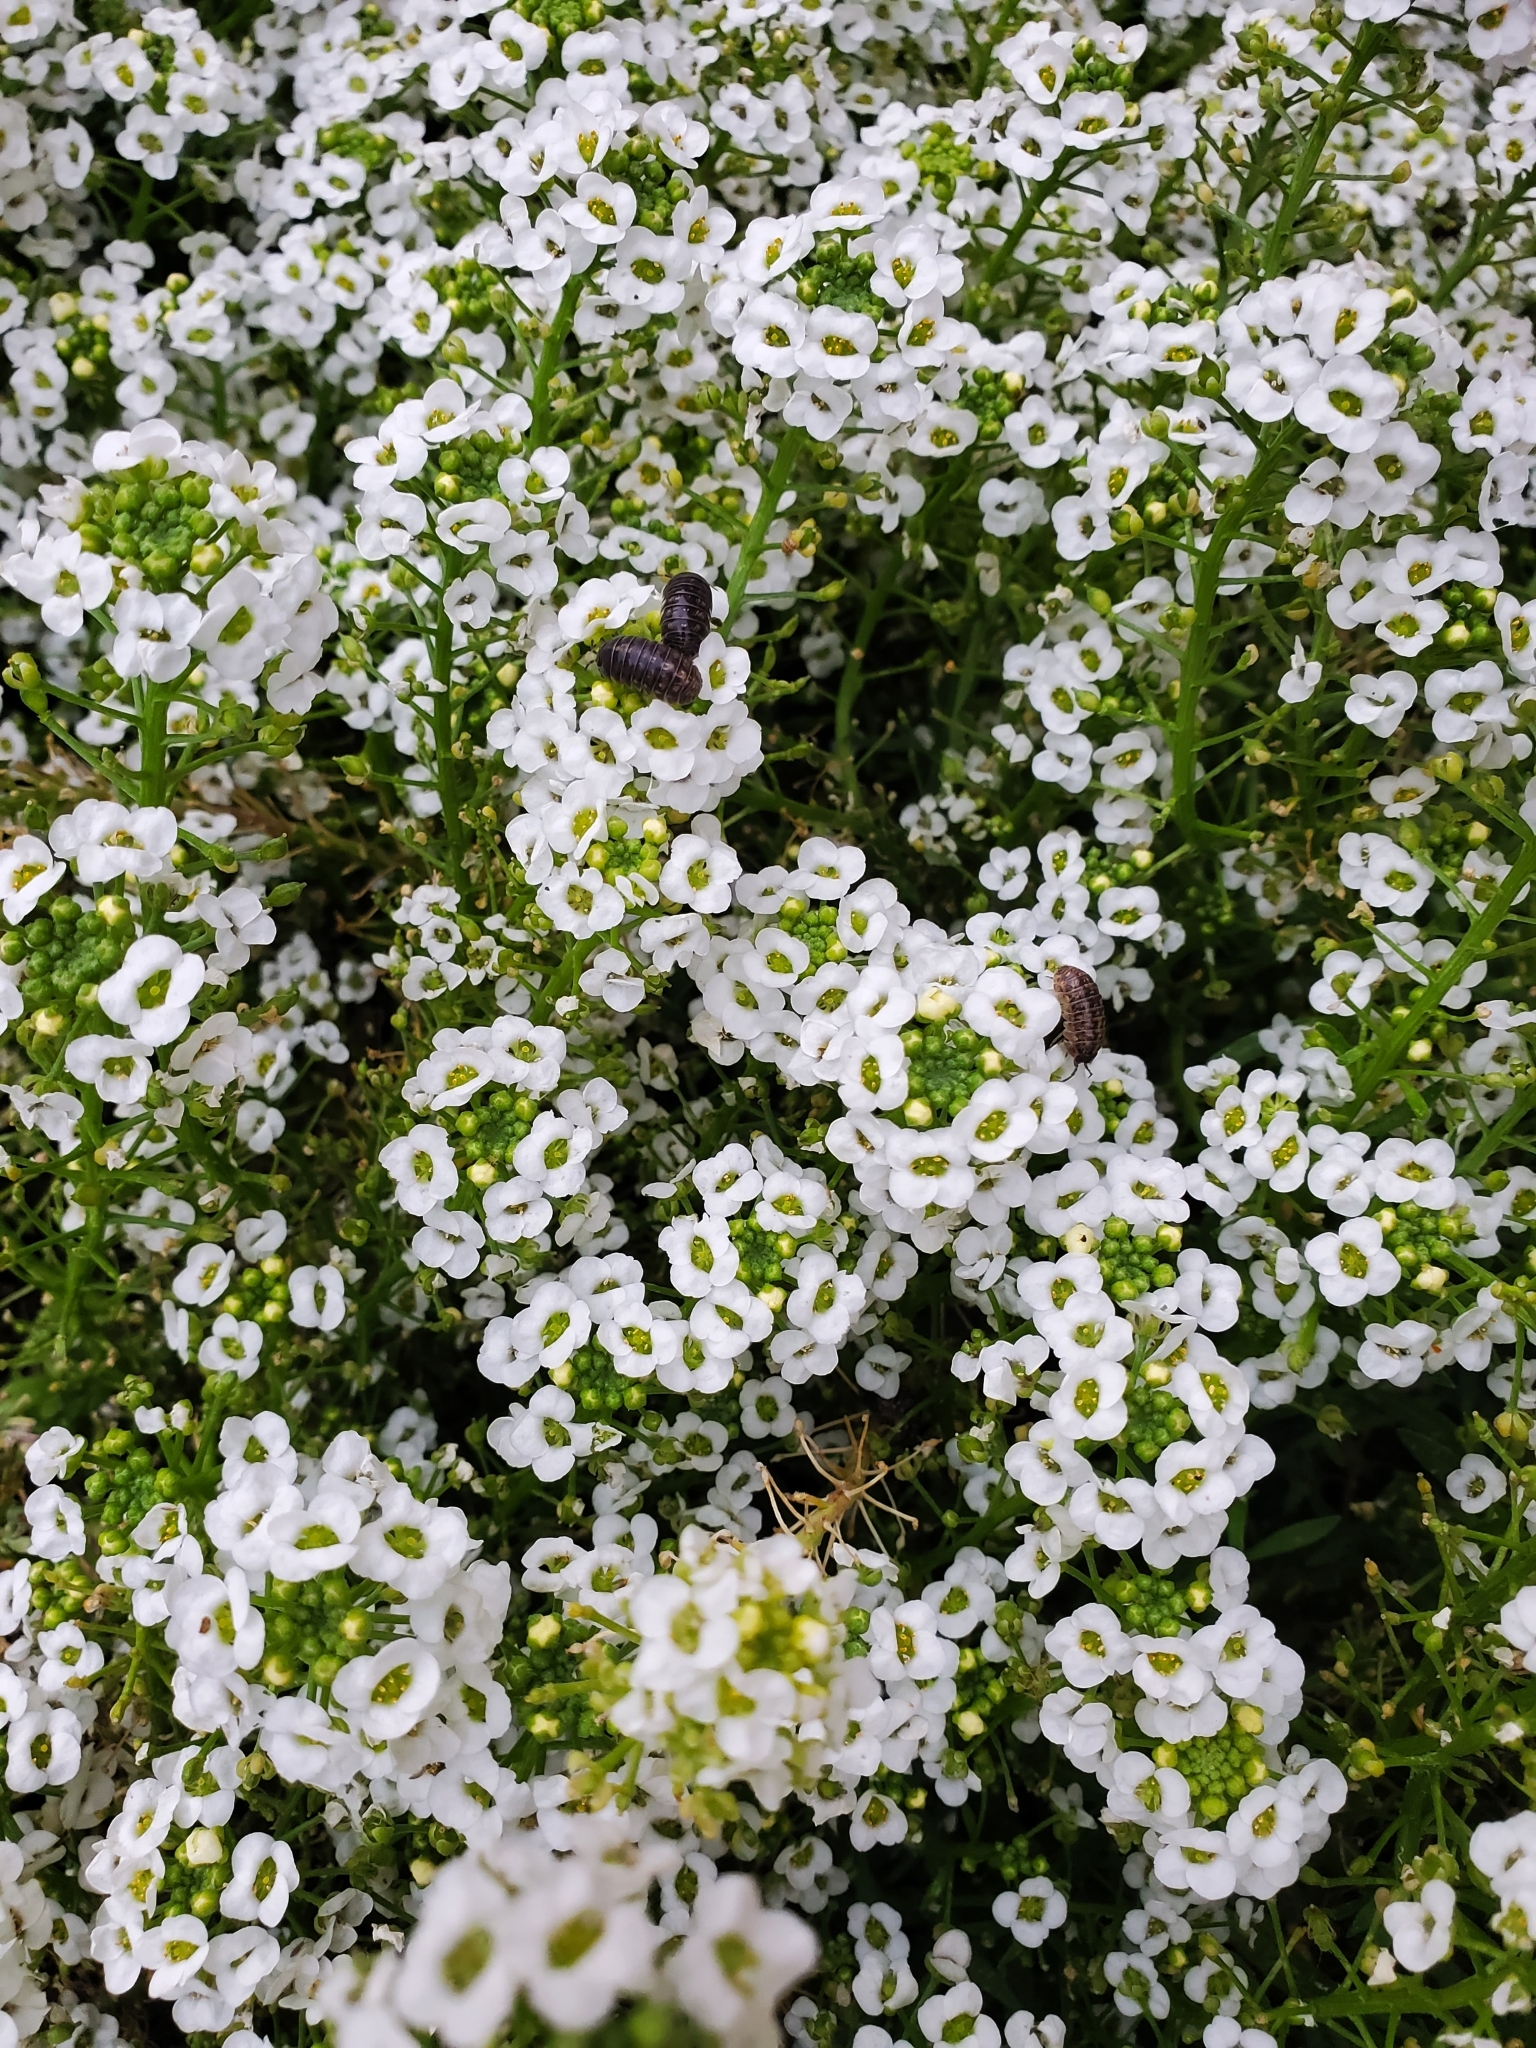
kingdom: Animalia
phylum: Arthropoda
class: Malacostraca
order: Isopoda
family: Armadillidiidae
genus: Armadillidium
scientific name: Armadillidium vulgare
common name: Common pill woodlouse
